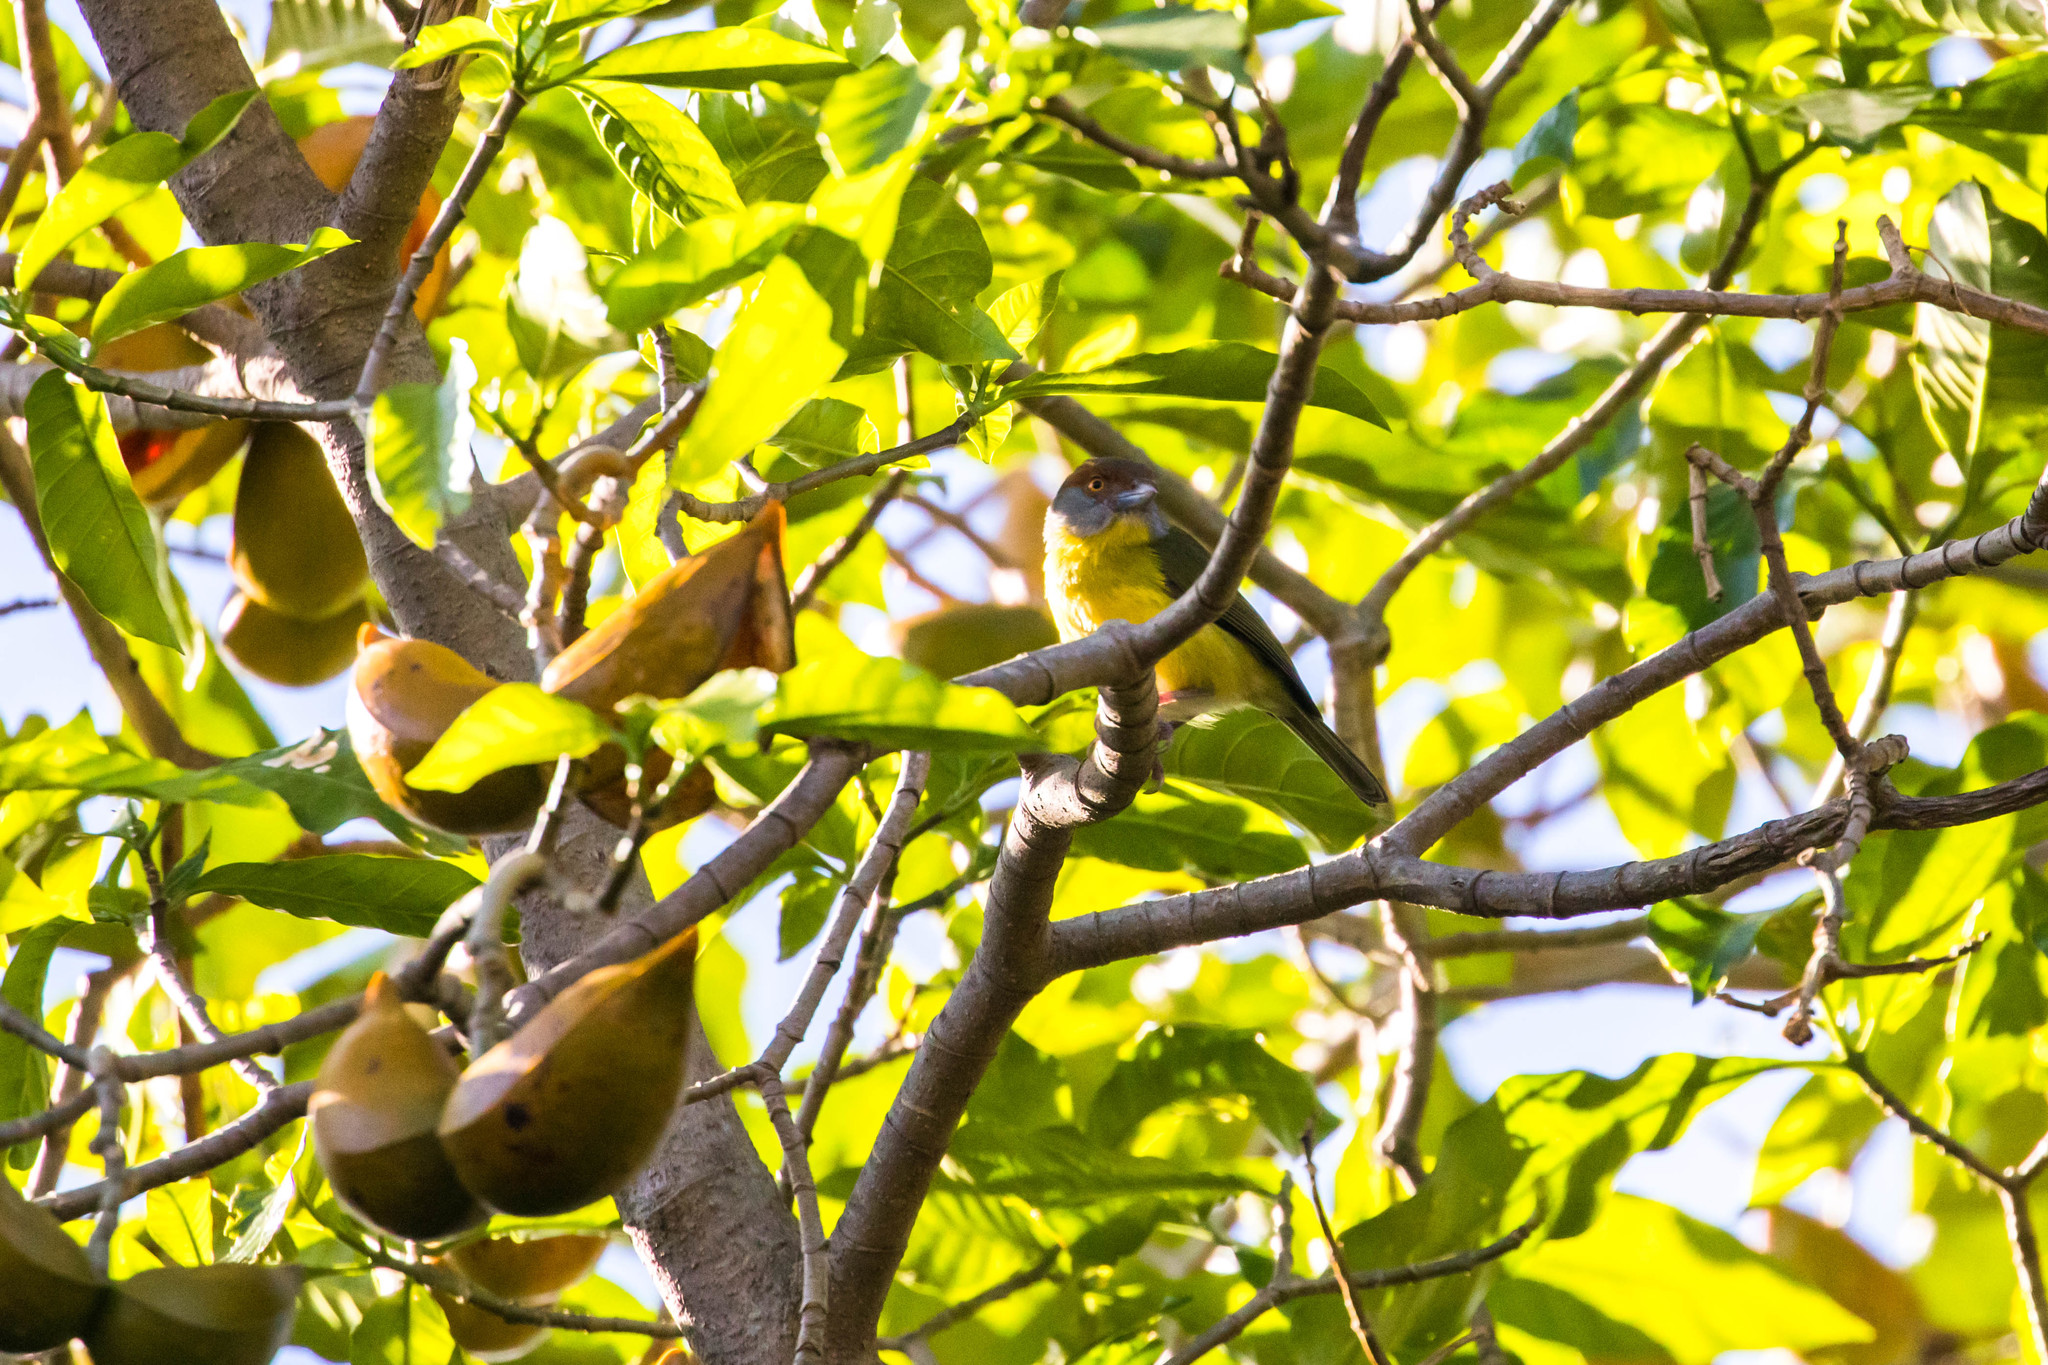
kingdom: Animalia
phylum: Chordata
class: Aves
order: Passeriformes
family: Vireonidae
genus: Cyclarhis
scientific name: Cyclarhis gujanensis
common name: Rufous-browed peppershrike
